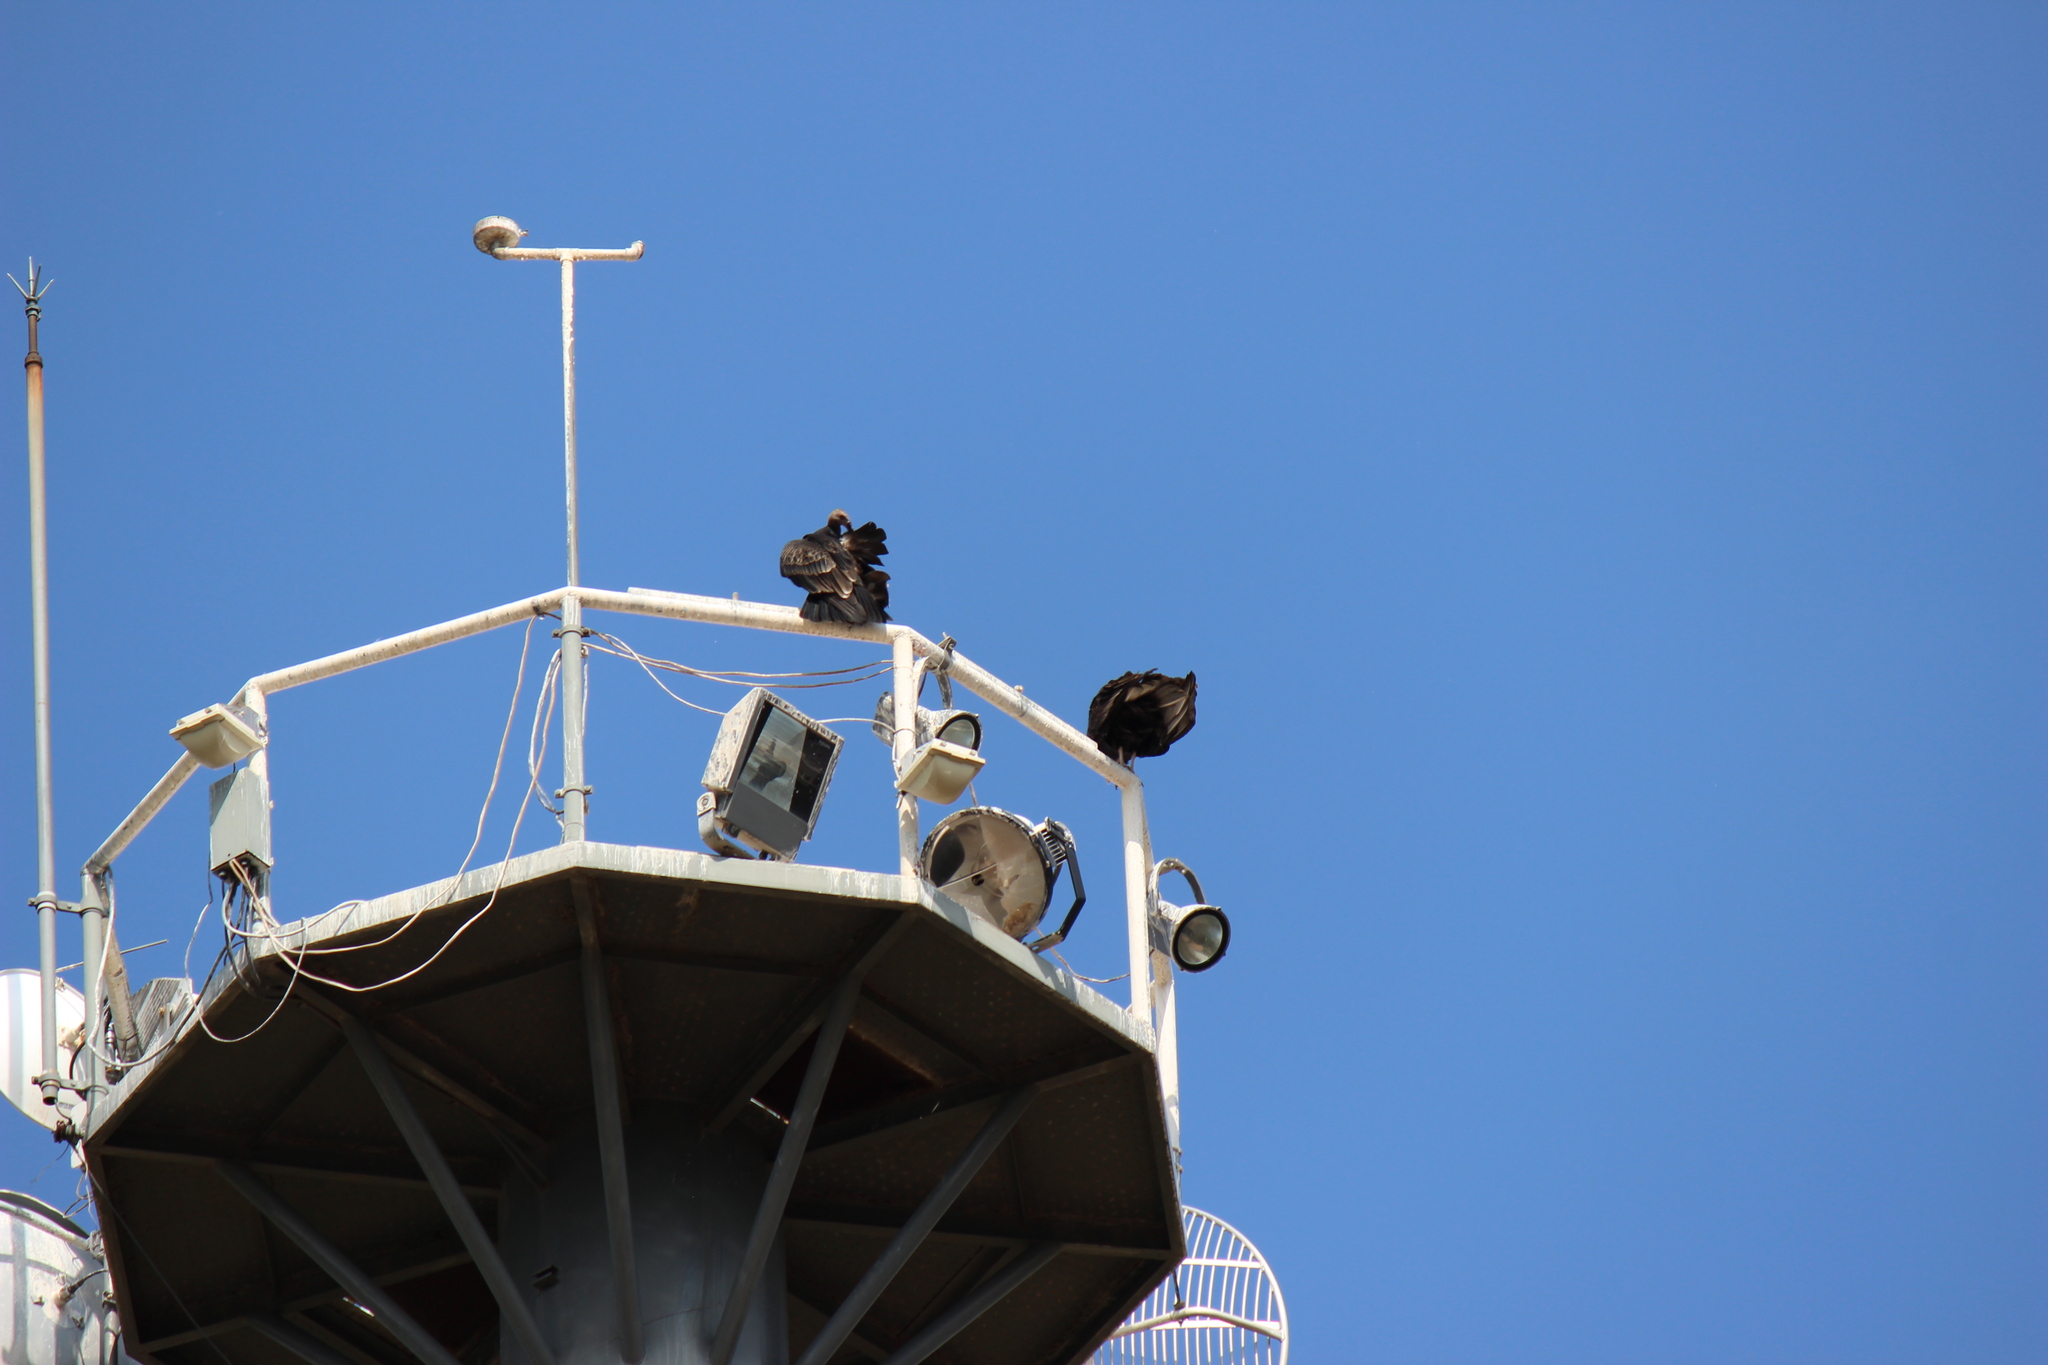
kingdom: Animalia
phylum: Chordata
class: Aves
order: Accipitriformes
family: Cathartidae
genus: Cathartes
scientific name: Cathartes aura
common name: Turkey vulture
